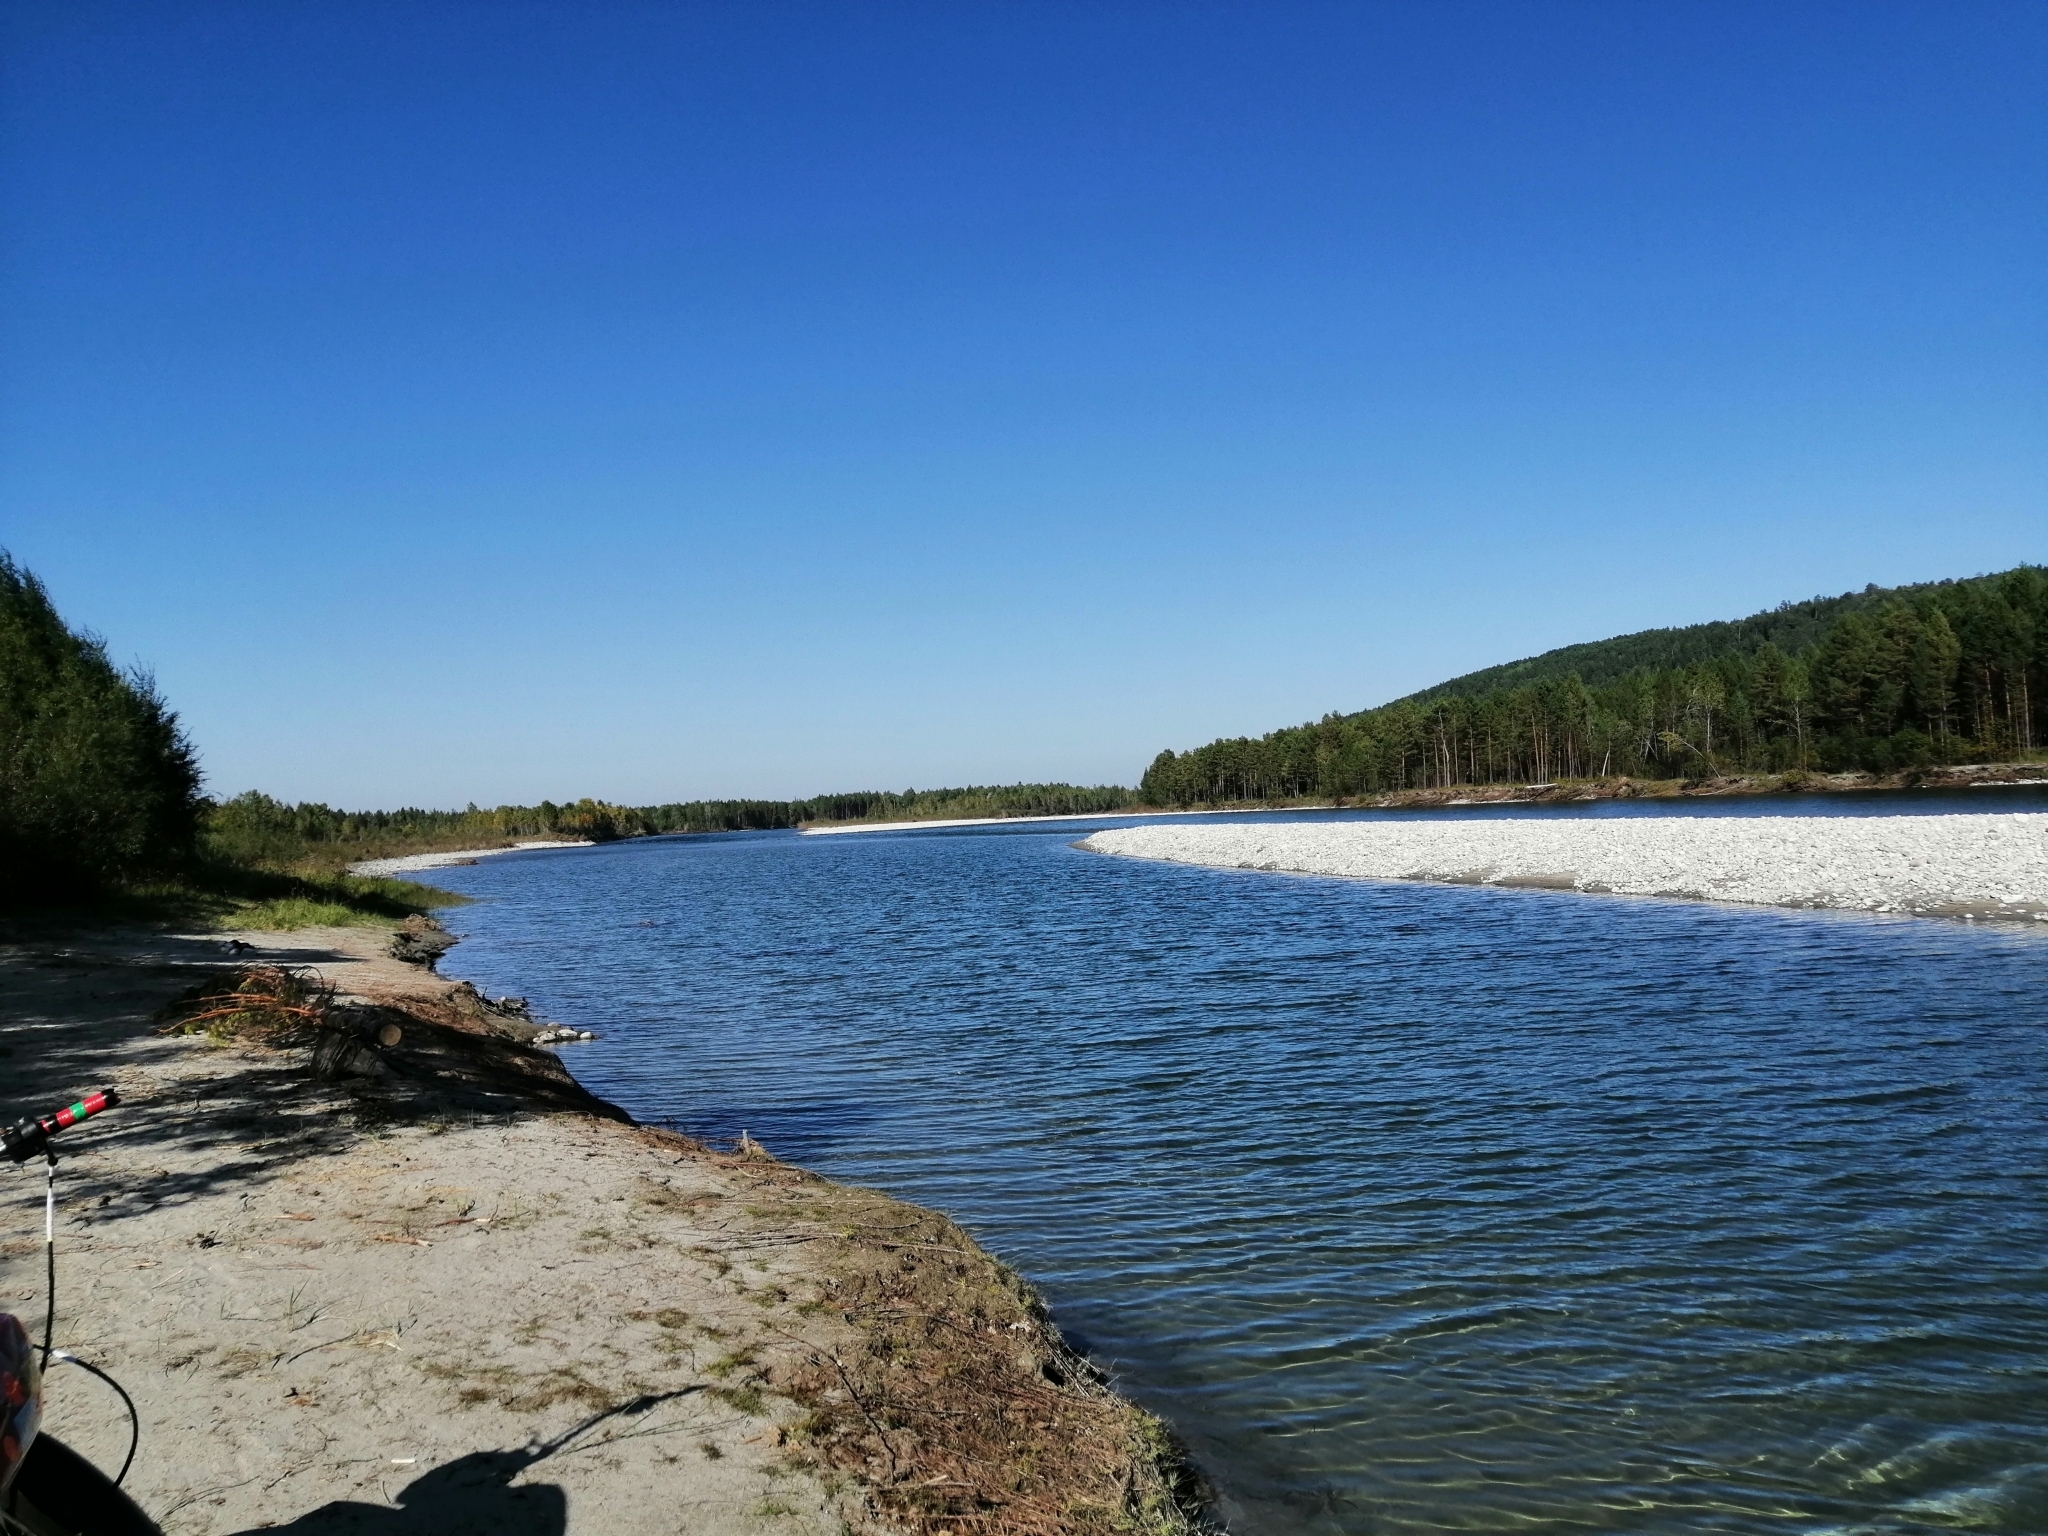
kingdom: Plantae
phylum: Tracheophyta
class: Pinopsida
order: Pinales
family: Pinaceae
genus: Pinus
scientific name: Pinus sylvestris
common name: Scots pine
